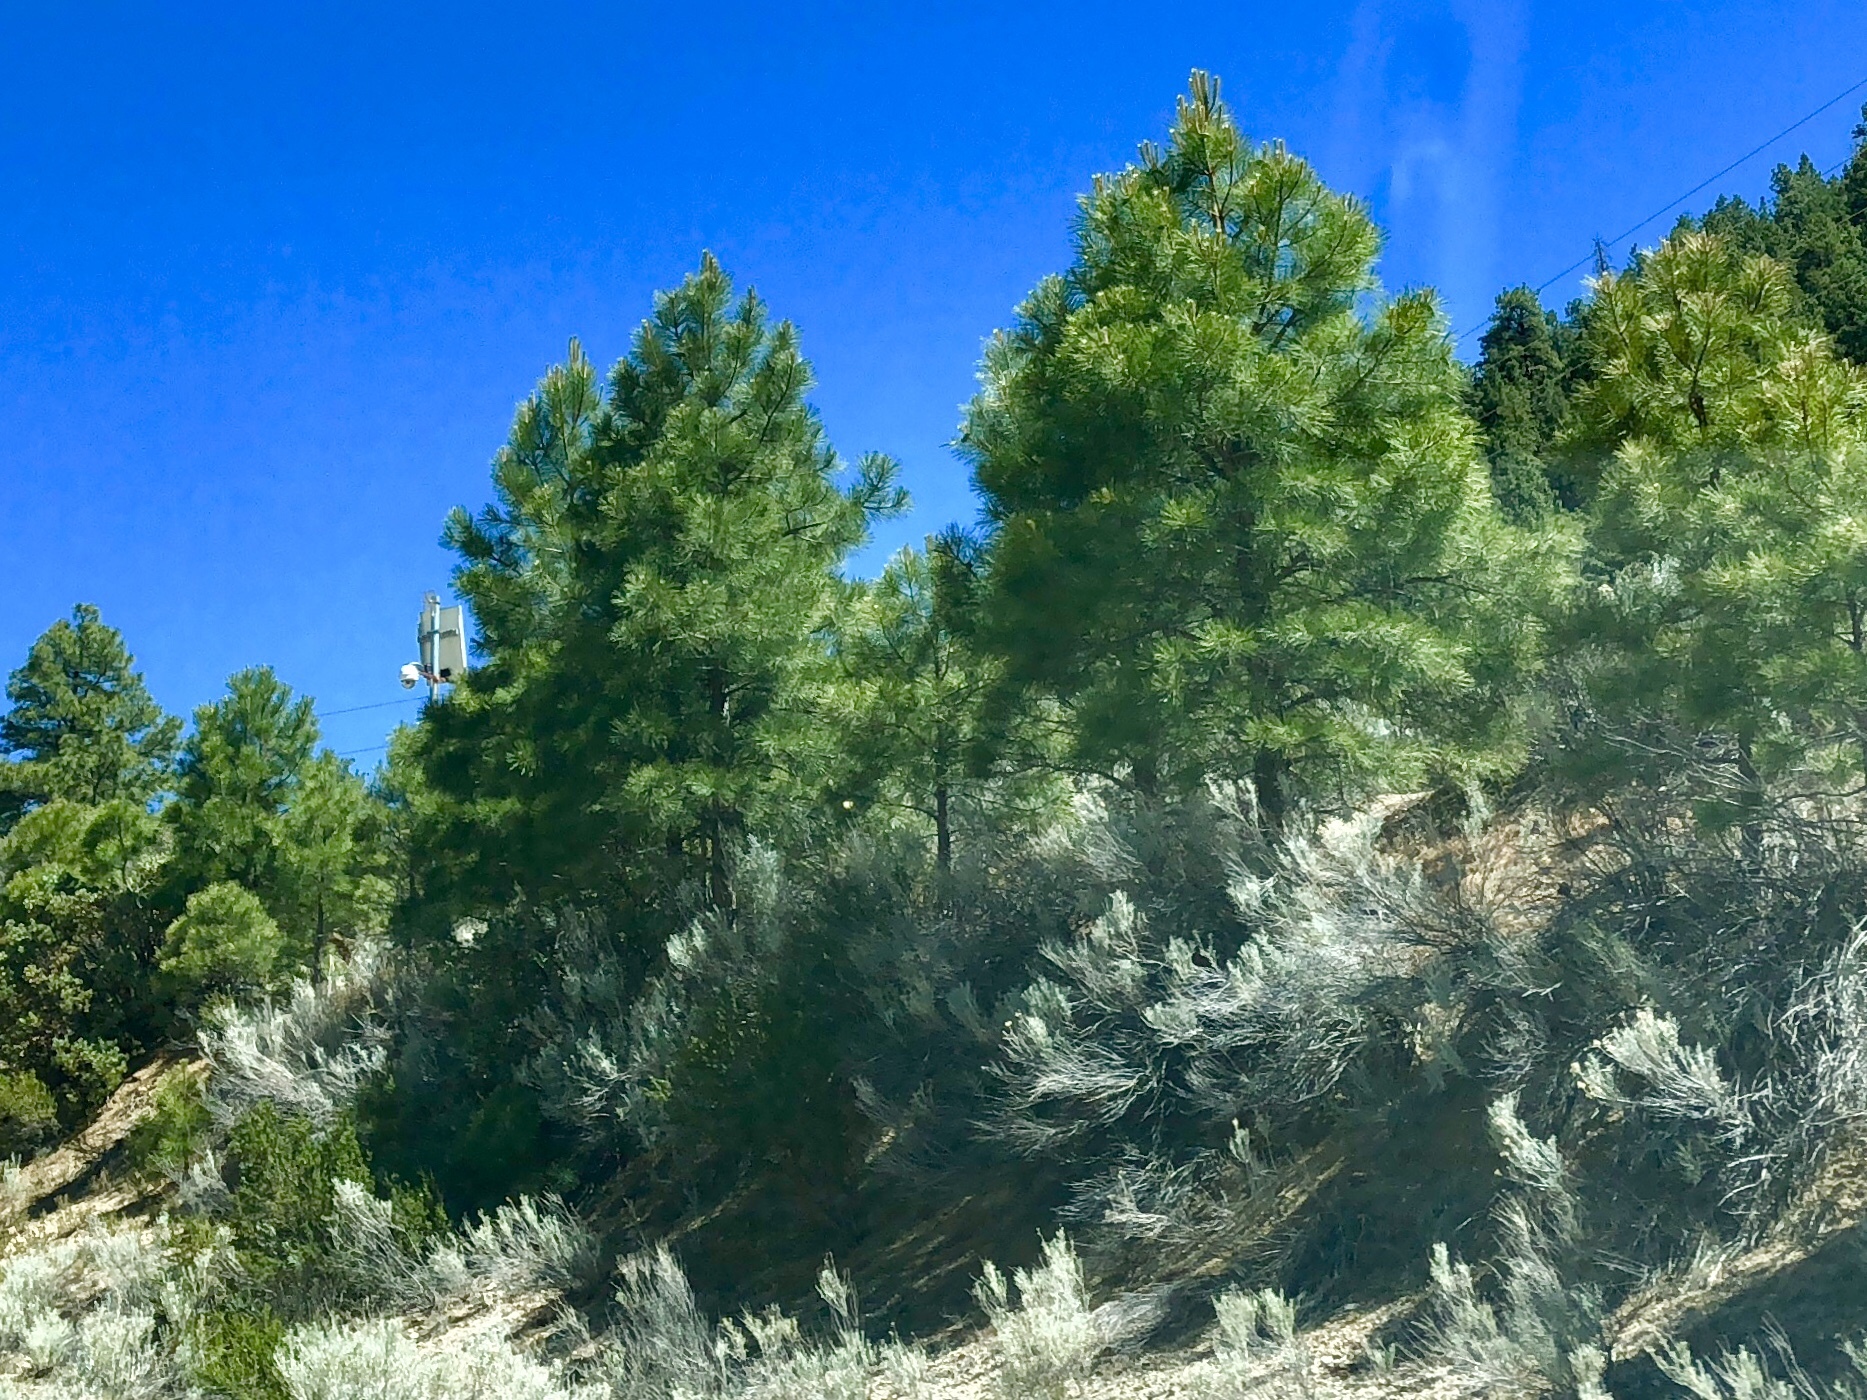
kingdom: Plantae
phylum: Tracheophyta
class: Pinopsida
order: Pinales
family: Pinaceae
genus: Pinus
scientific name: Pinus ponderosa
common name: Western yellow-pine
